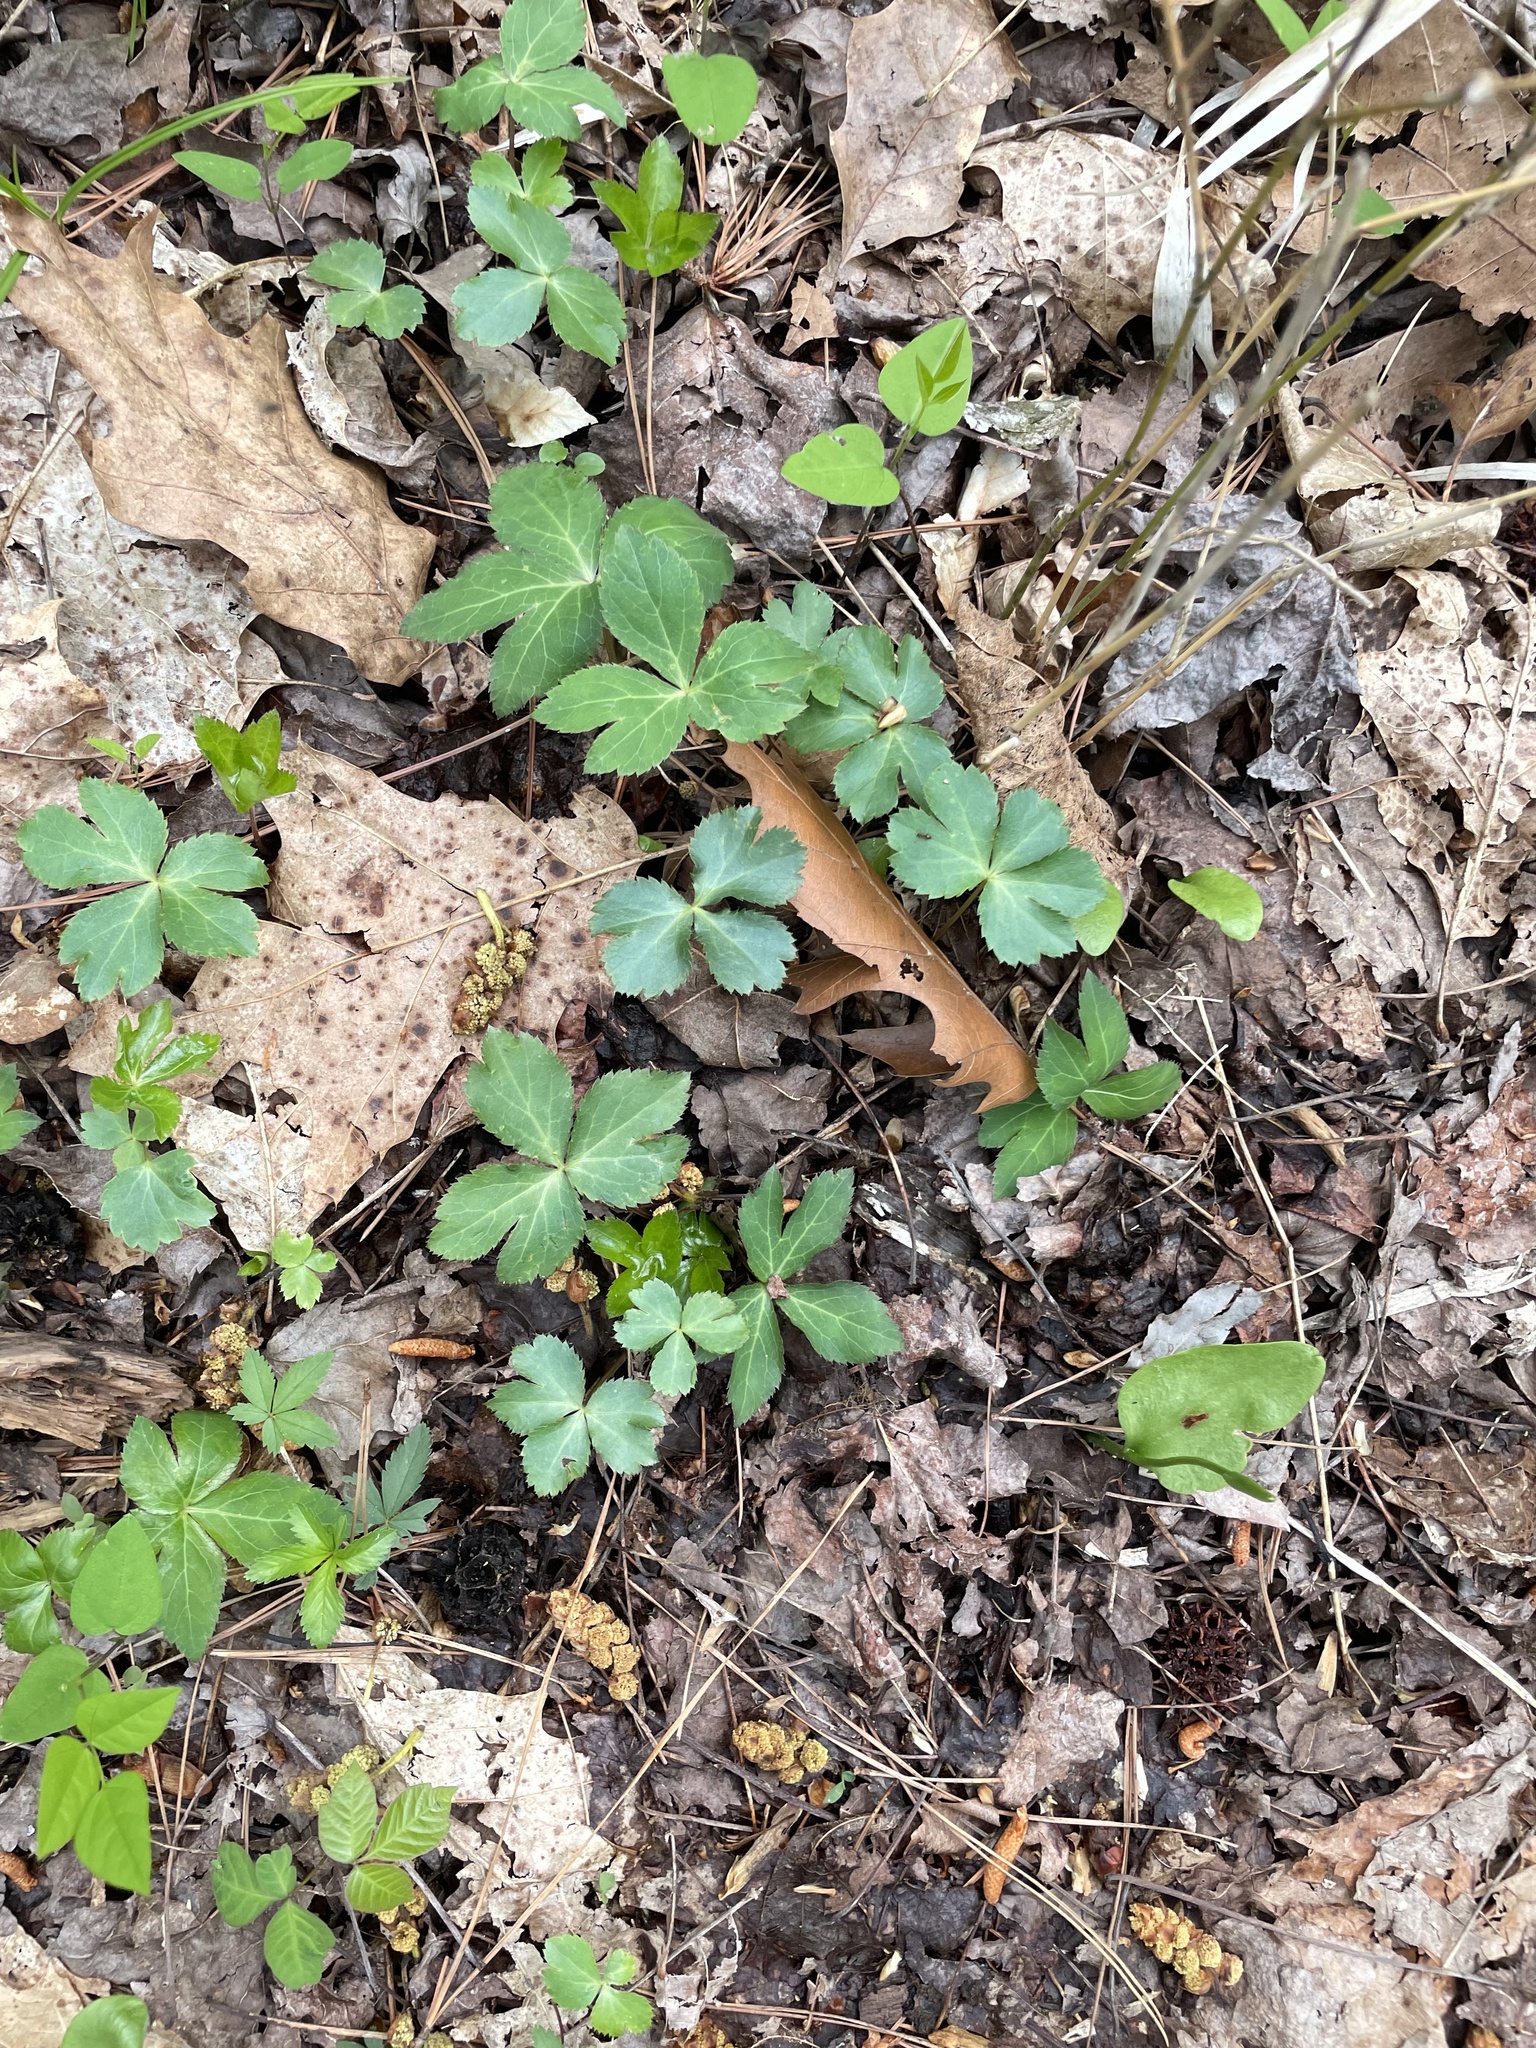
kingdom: Plantae
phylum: Tracheophyta
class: Magnoliopsida
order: Apiales
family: Apiaceae
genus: Sanicula
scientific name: Sanicula smallii
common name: Small's black snakeroot
